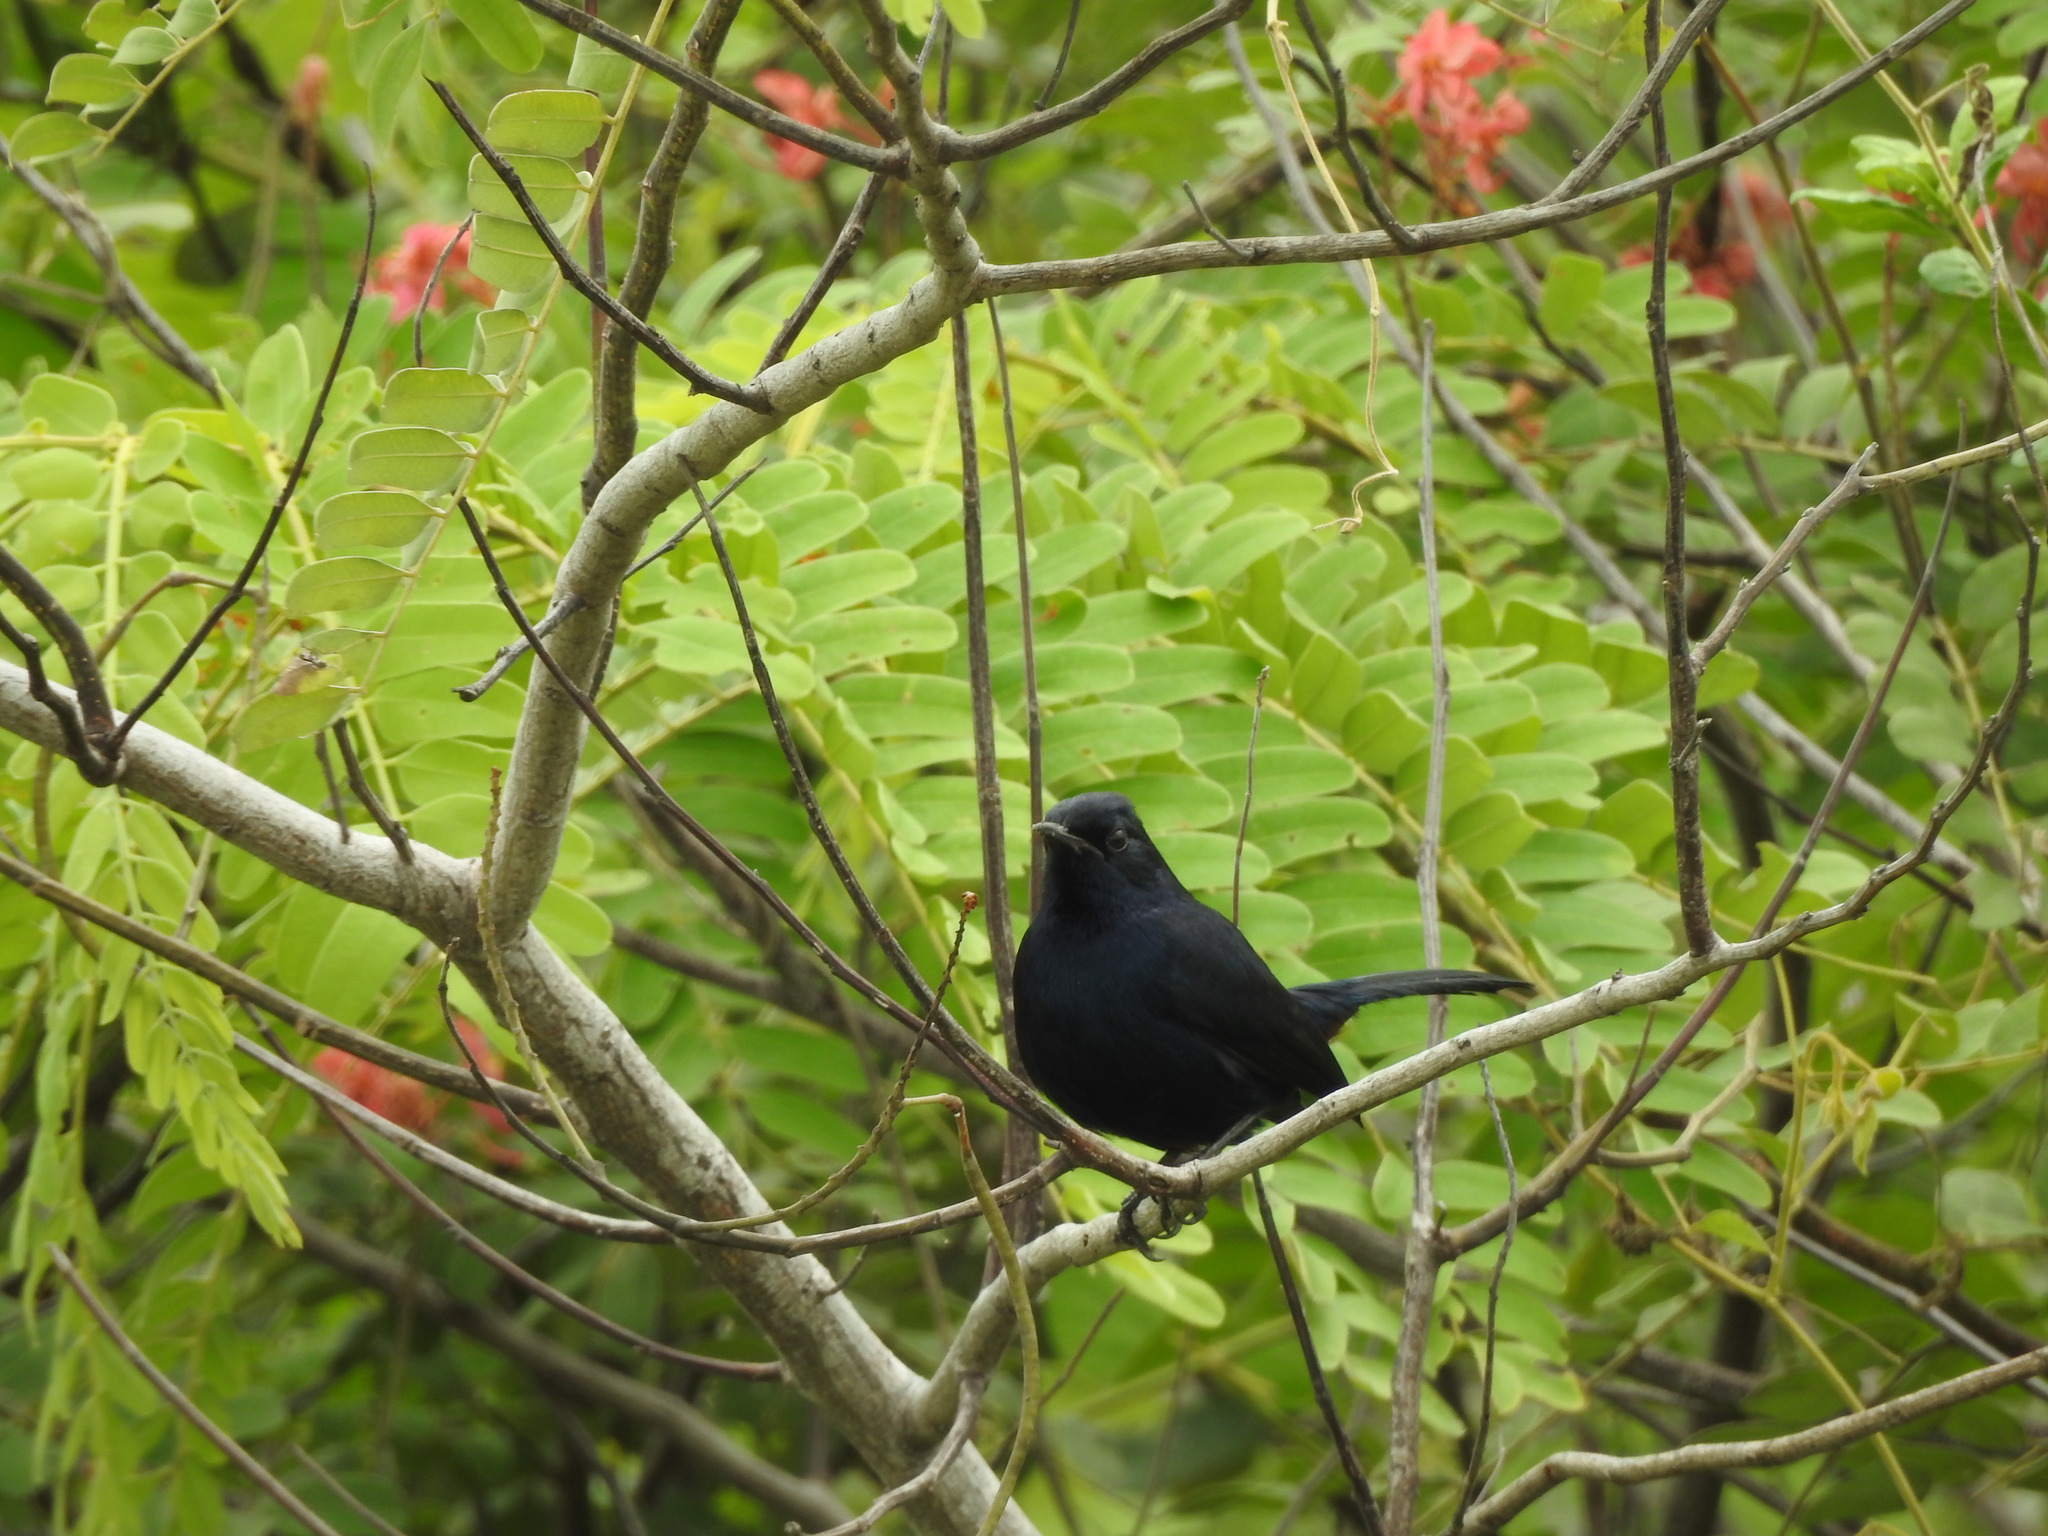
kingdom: Animalia
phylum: Chordata
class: Aves
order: Passeriformes
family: Muscicapidae
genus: Saxicoloides
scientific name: Saxicoloides fulicatus
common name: Indian robin
